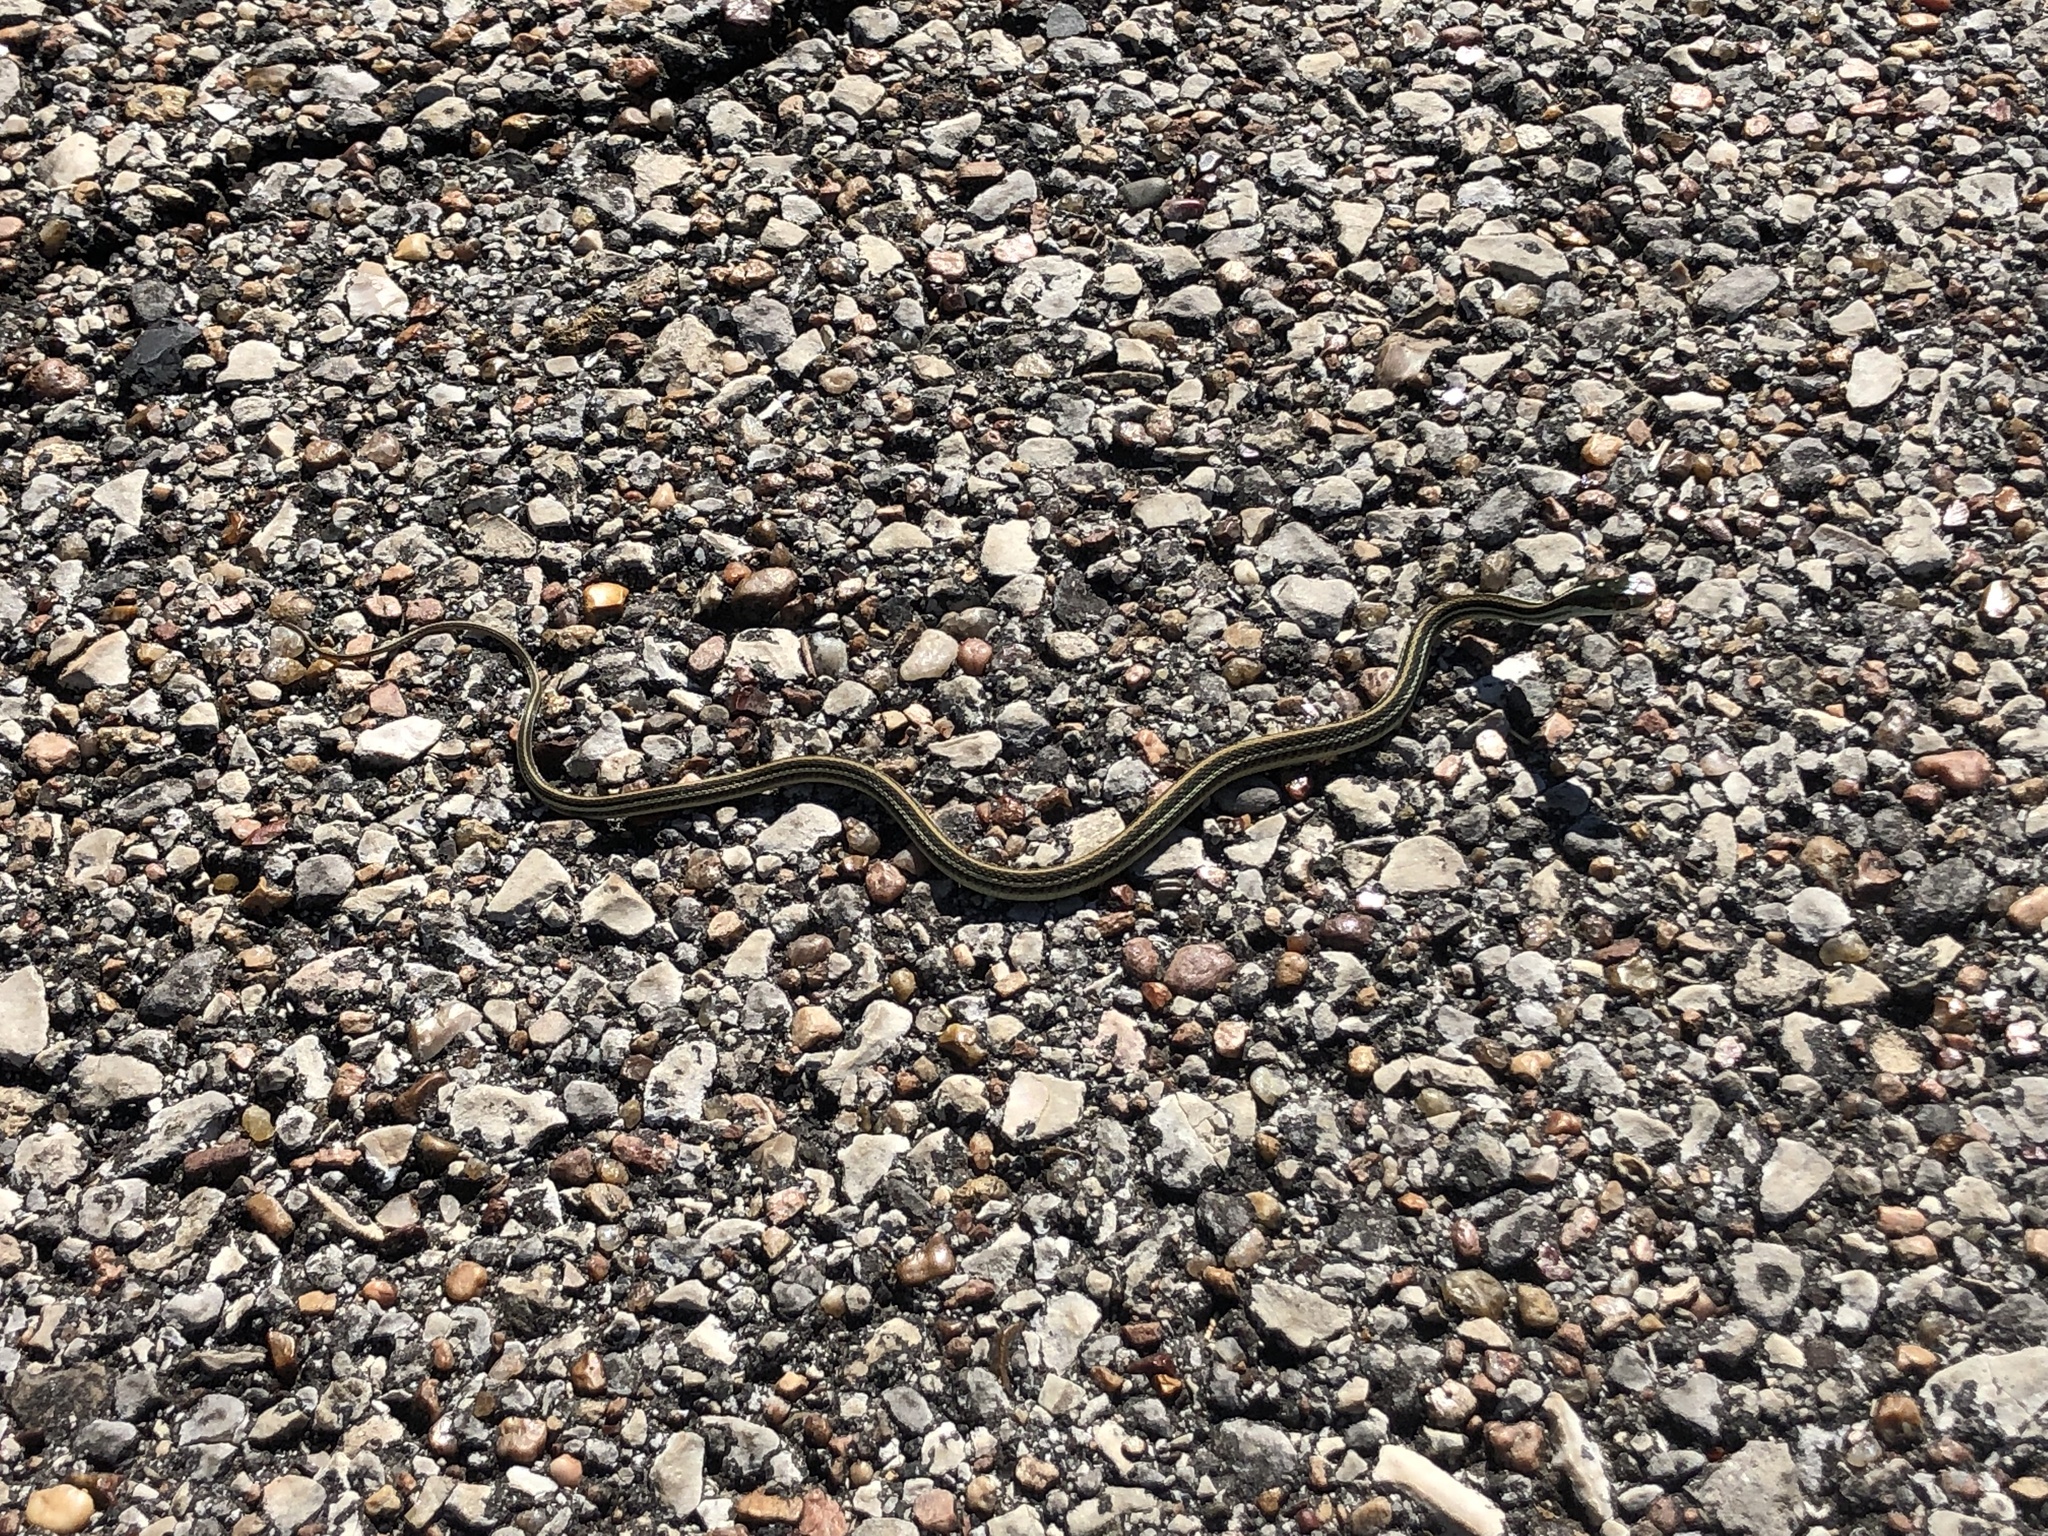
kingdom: Animalia
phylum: Chordata
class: Squamata
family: Colubridae
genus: Thamnophis
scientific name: Thamnophis proximus
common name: Western ribbon snake
